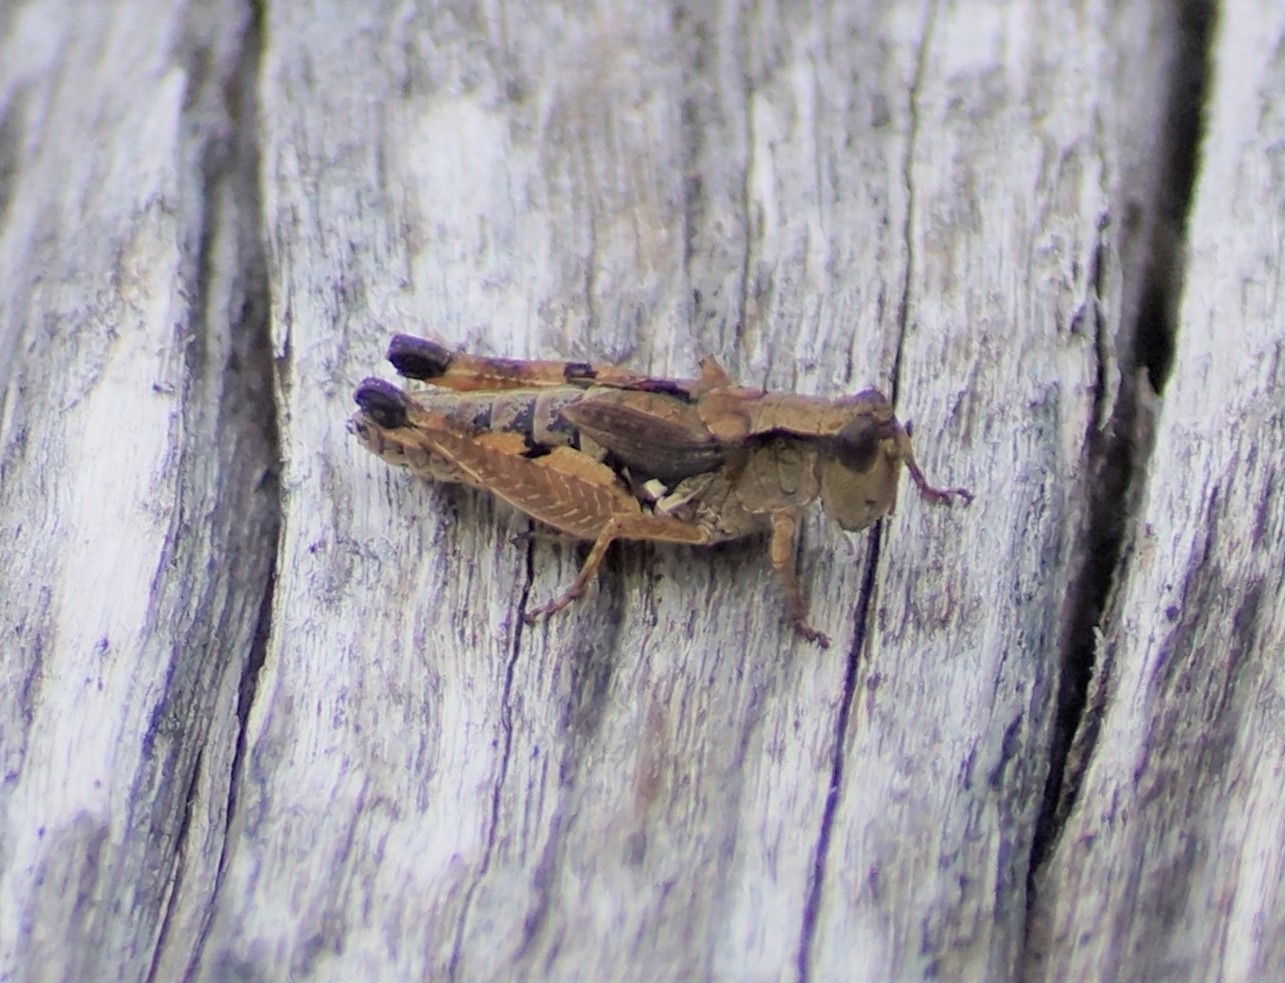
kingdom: Animalia
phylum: Arthropoda
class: Insecta
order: Orthoptera
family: Acrididae
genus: Phaulacridium
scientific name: Phaulacridium vittatum
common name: Wingless grasshopper
